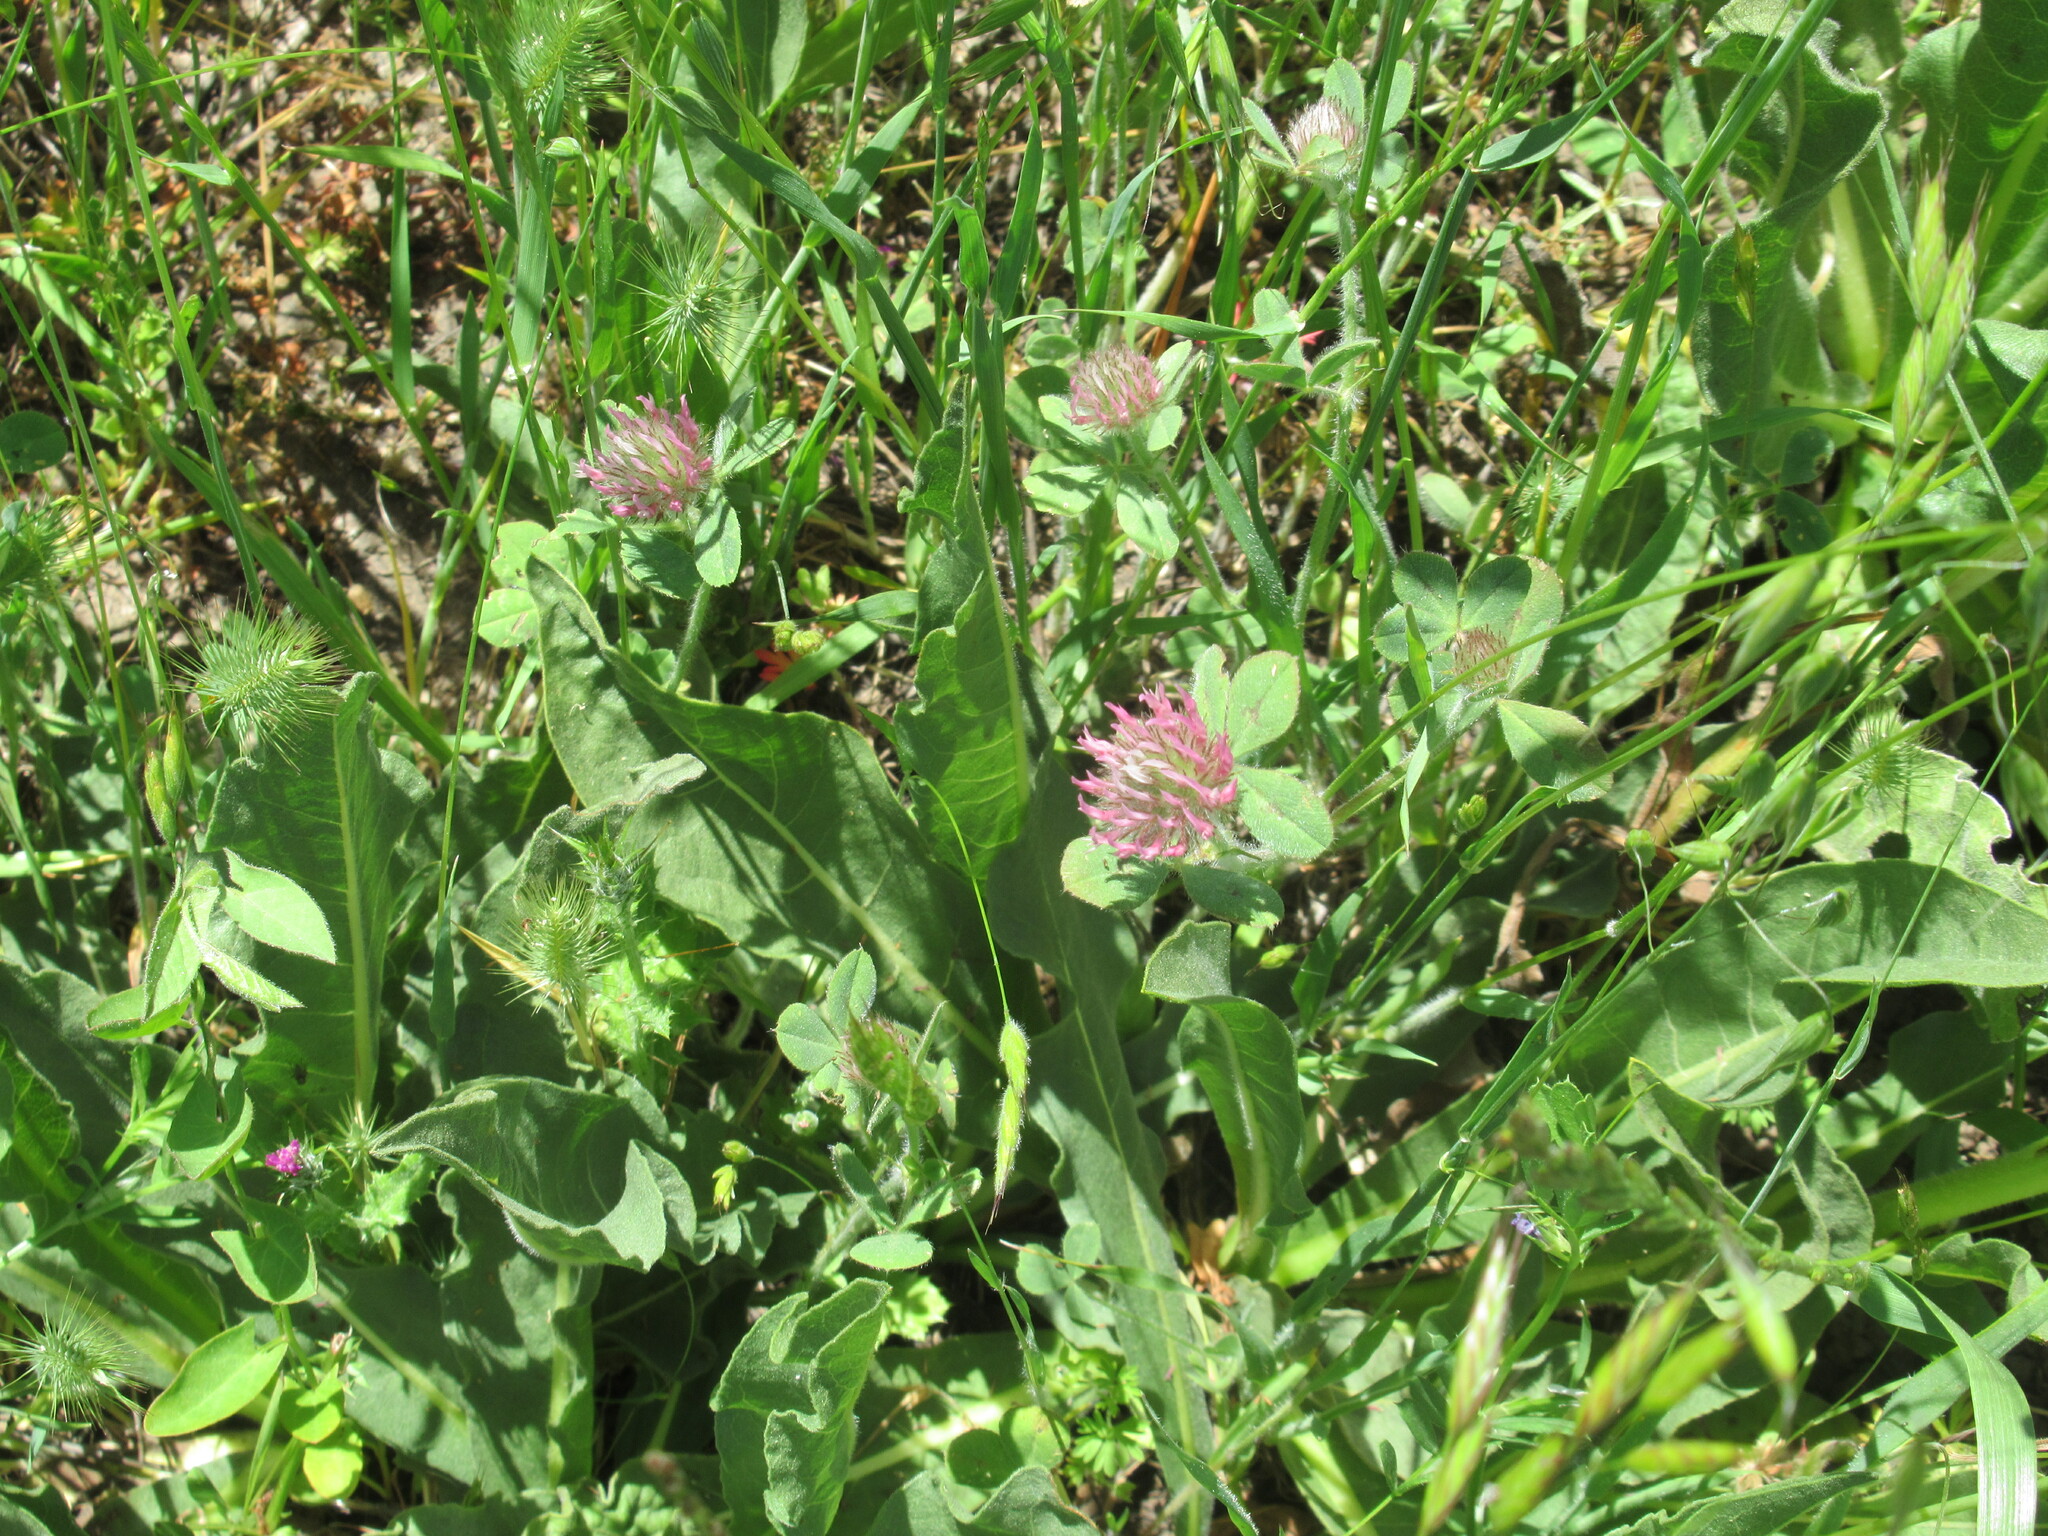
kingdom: Plantae
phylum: Tracheophyta
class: Magnoliopsida
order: Fabales
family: Fabaceae
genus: Trifolium
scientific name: Trifolium hirtum
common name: Rose clover
